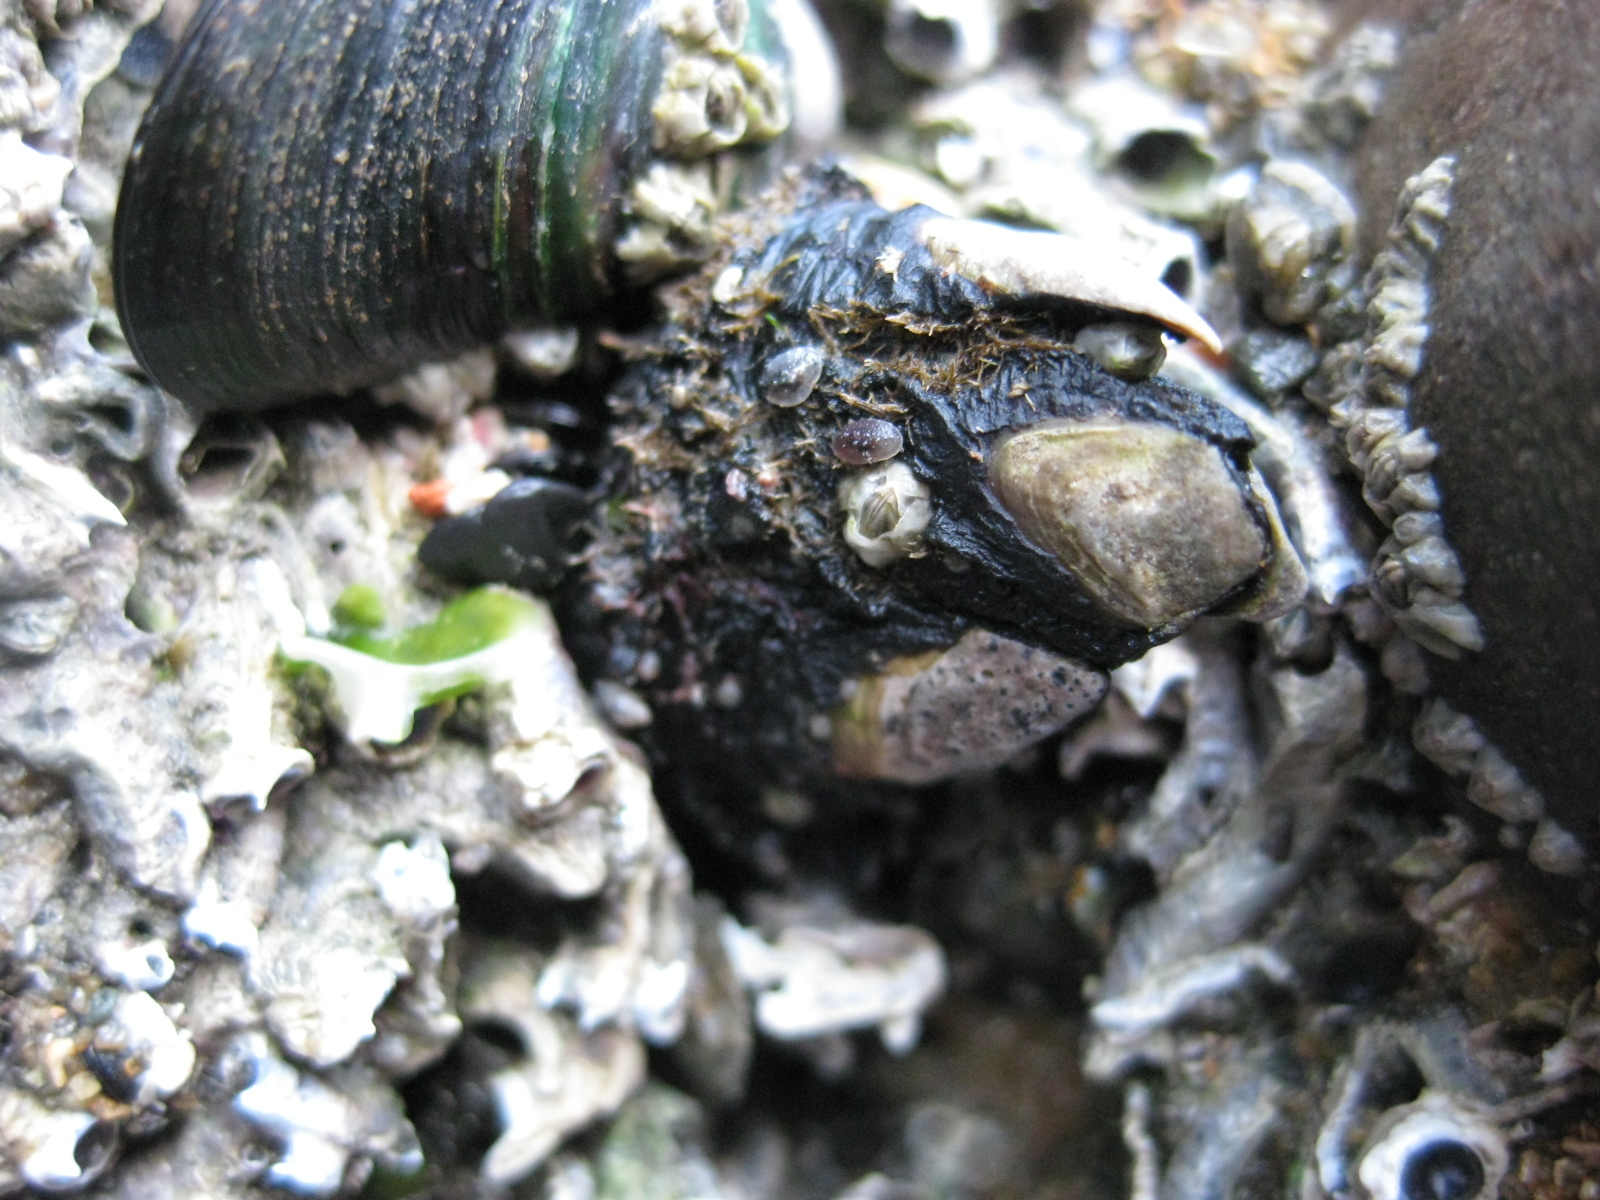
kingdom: Animalia
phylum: Arthropoda
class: Maxillopoda
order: Pedunculata
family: Calanticidae
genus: Calantica
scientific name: Calantica spinosa
